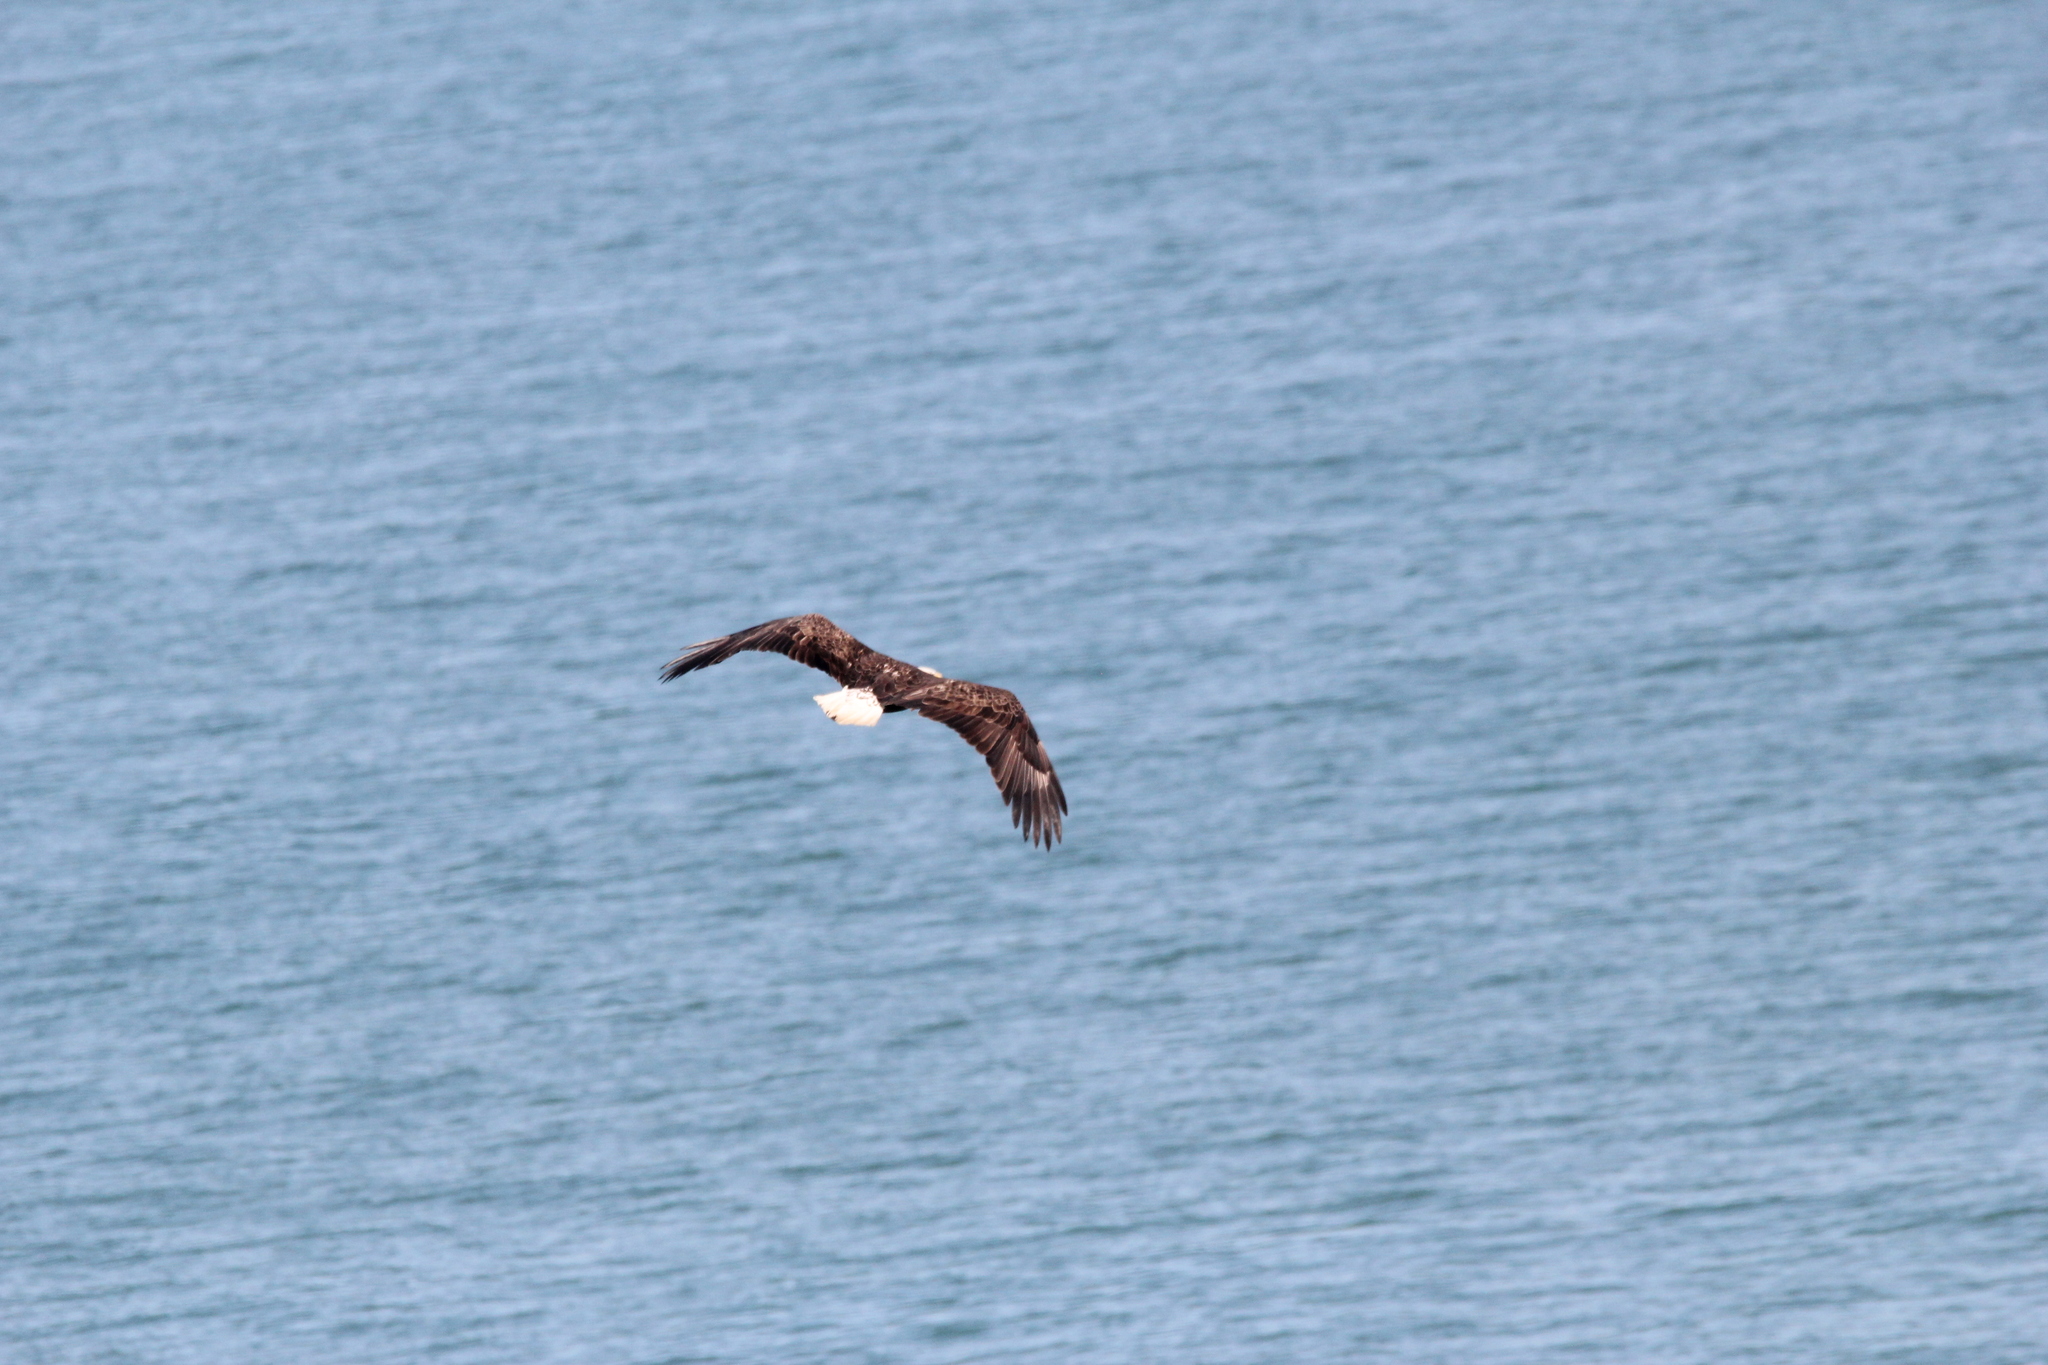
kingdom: Animalia
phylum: Chordata
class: Aves
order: Accipitriformes
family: Accipitridae
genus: Haliaeetus
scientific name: Haliaeetus leucocephalus
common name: Bald eagle
